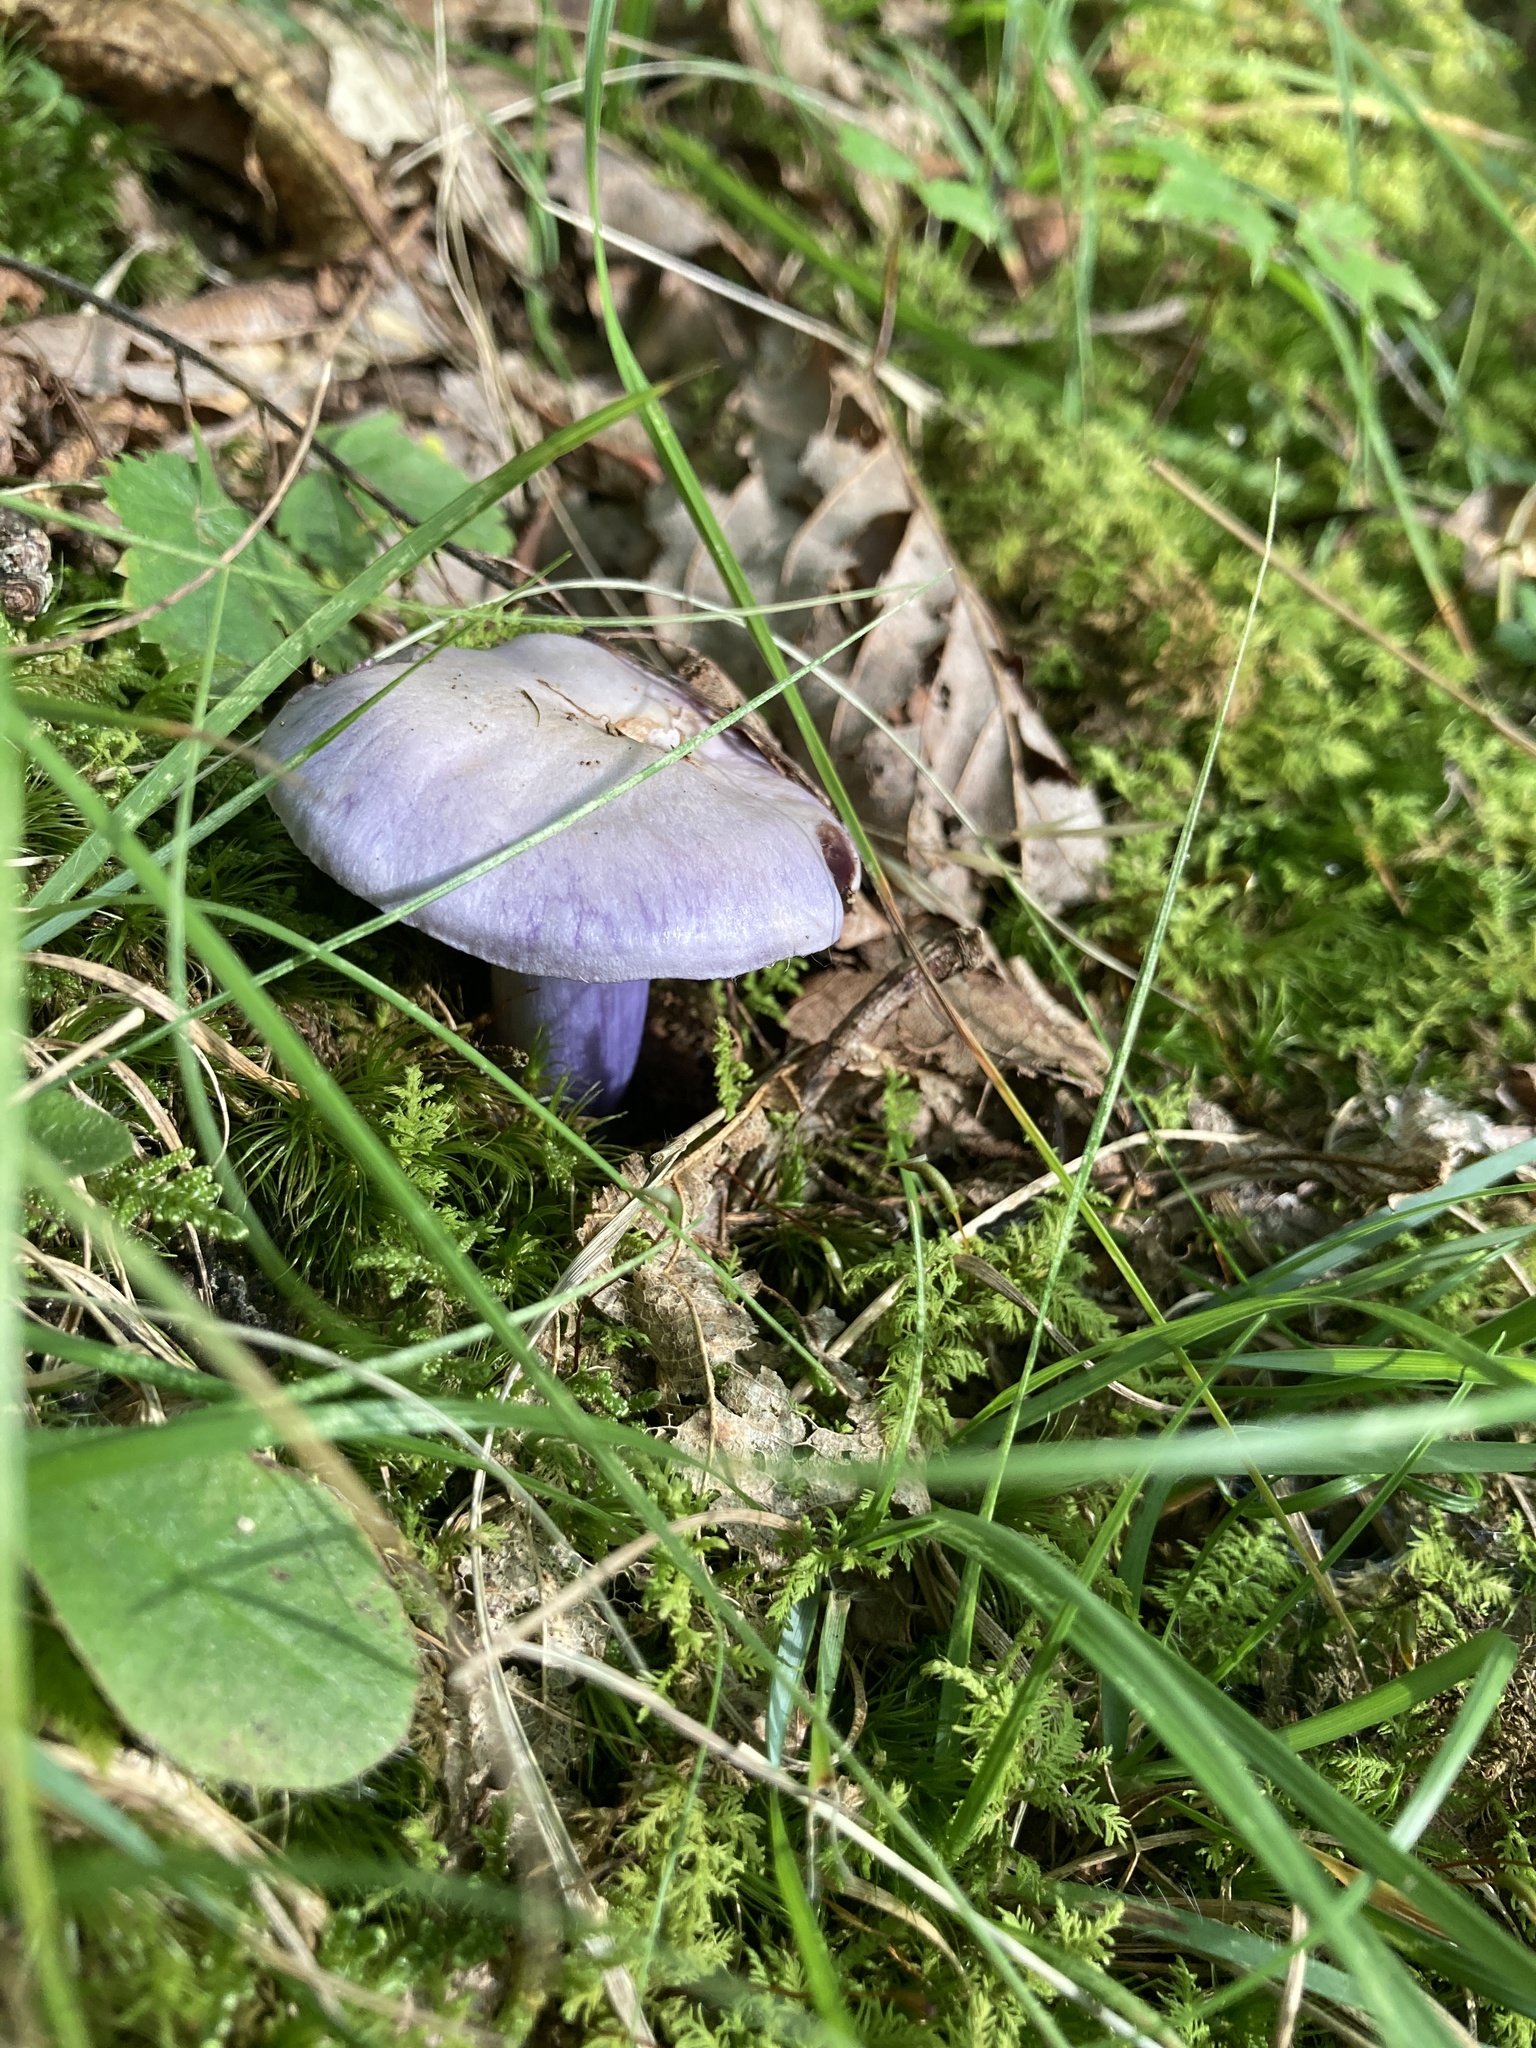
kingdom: Fungi
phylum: Basidiomycota
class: Agaricomycetes
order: Agaricales
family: Cortinariaceae
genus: Cortinarius
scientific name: Cortinarius violaceus
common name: Violet webcap
